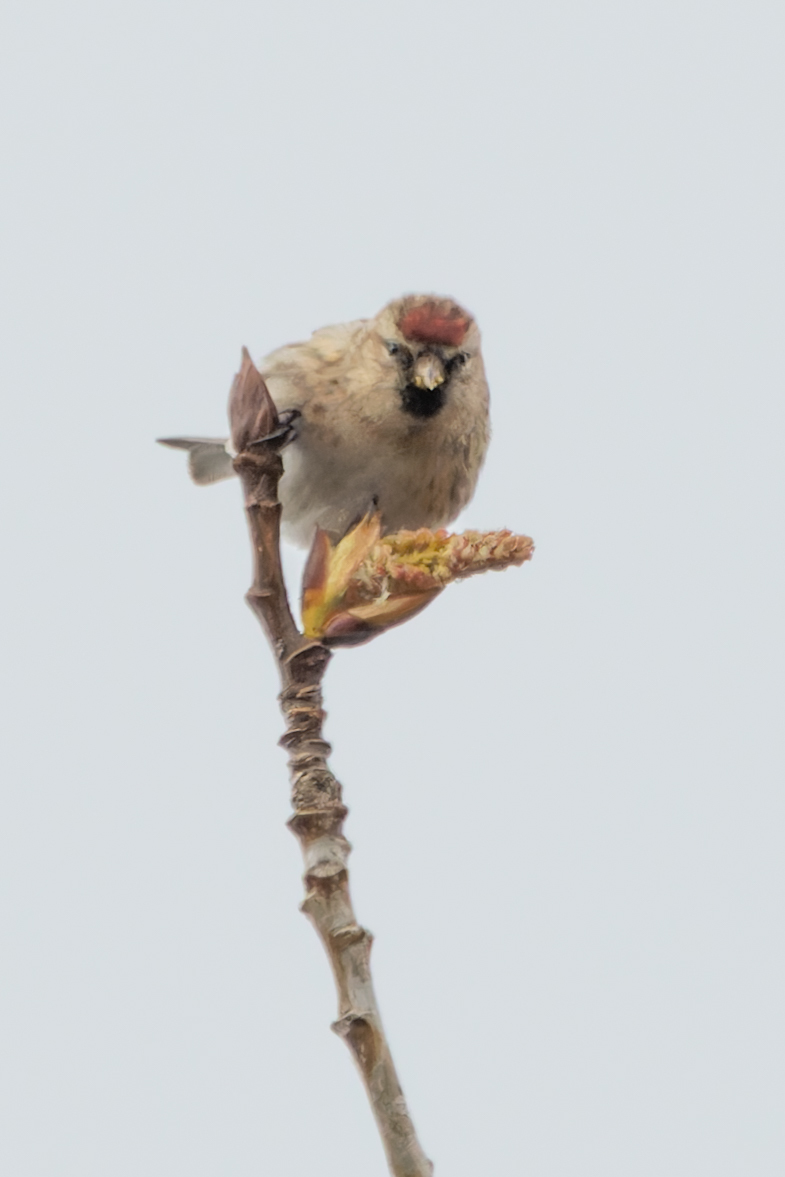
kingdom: Animalia
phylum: Chordata
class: Aves
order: Passeriformes
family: Fringillidae
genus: Acanthis
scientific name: Acanthis flammea
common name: Common redpoll
